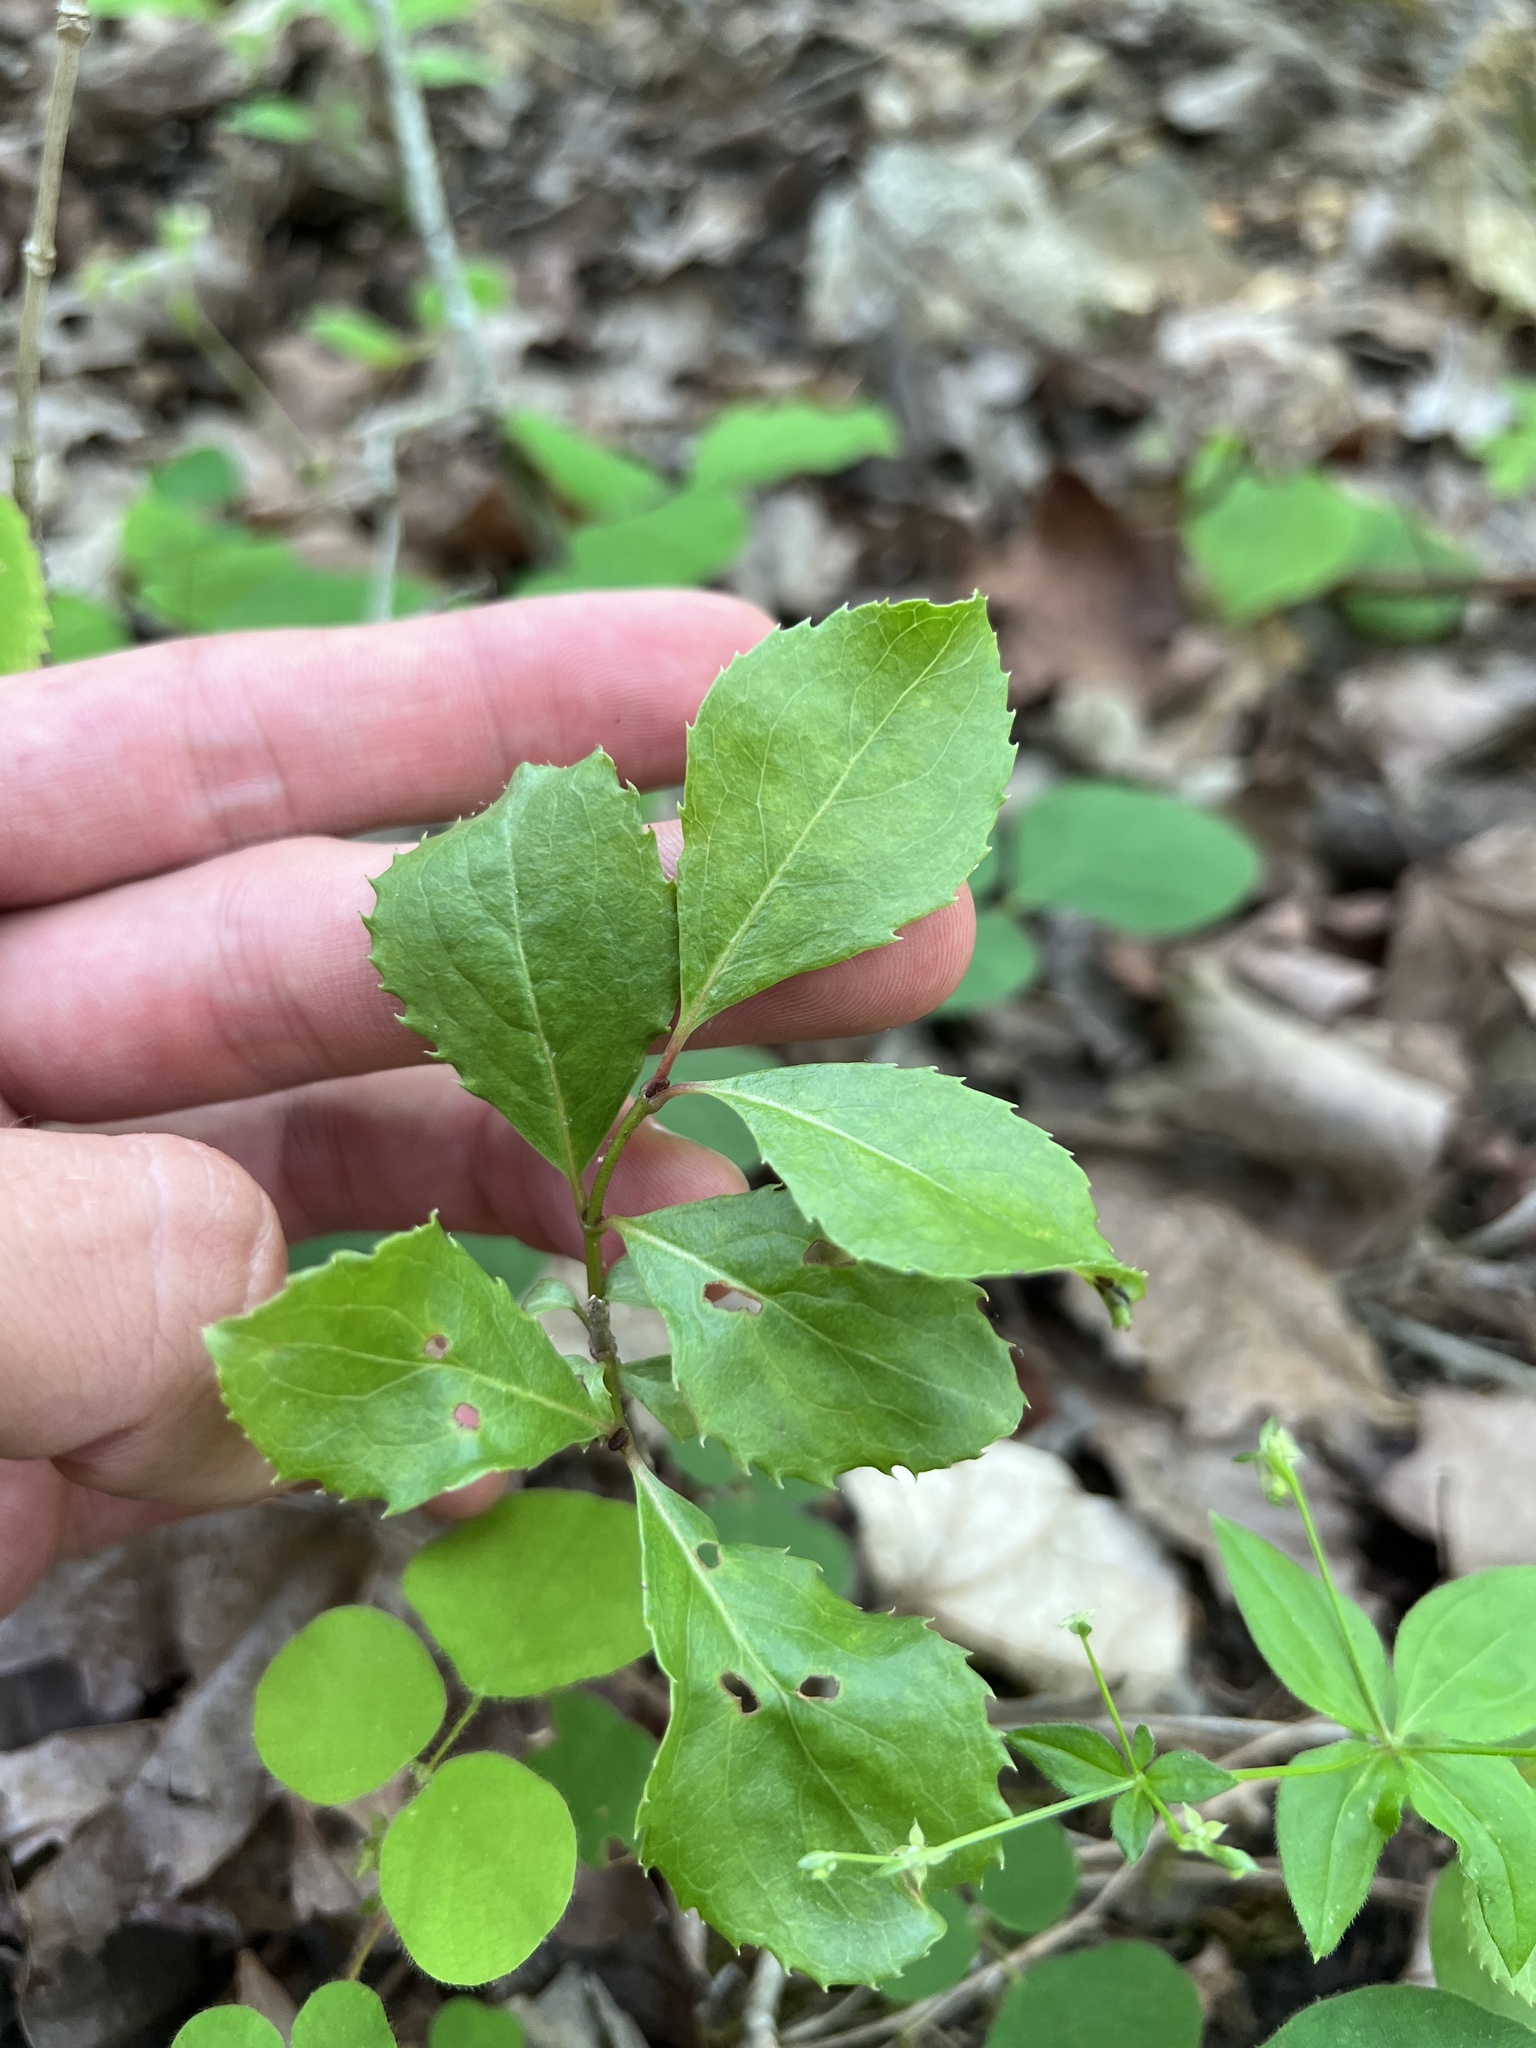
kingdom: Plantae
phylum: Tracheophyta
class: Magnoliopsida
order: Dipsacales
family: Viburnaceae
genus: Viburnum
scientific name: Viburnum rufidulum
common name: Blue haw
